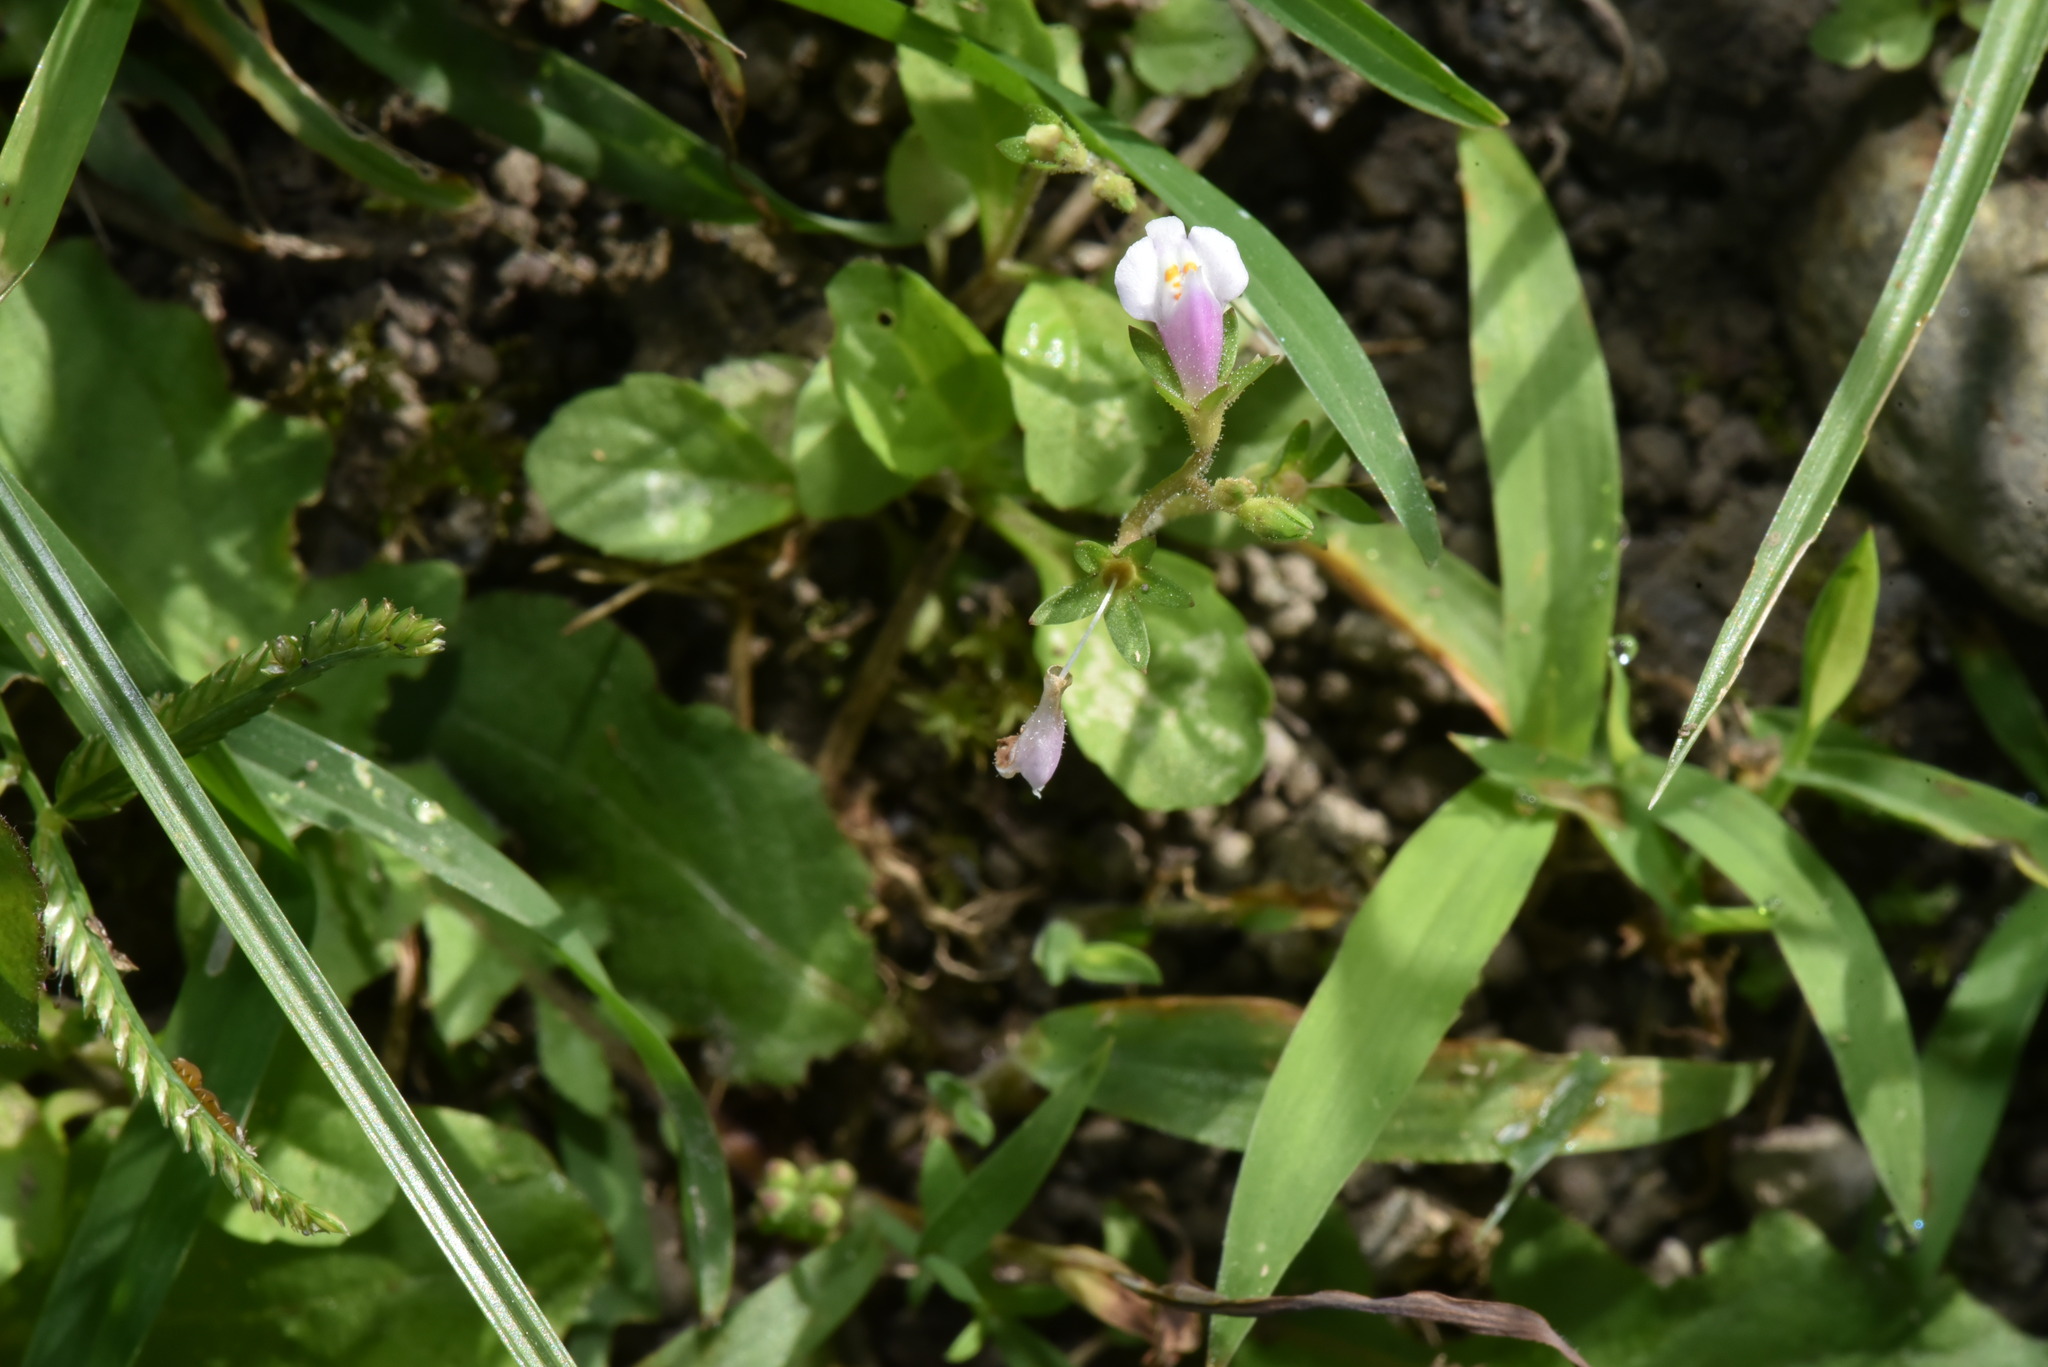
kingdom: Plantae
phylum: Tracheophyta
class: Magnoliopsida
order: Lamiales
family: Mazaceae
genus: Mazus
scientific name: Mazus pumilus
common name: Japanese mazus
